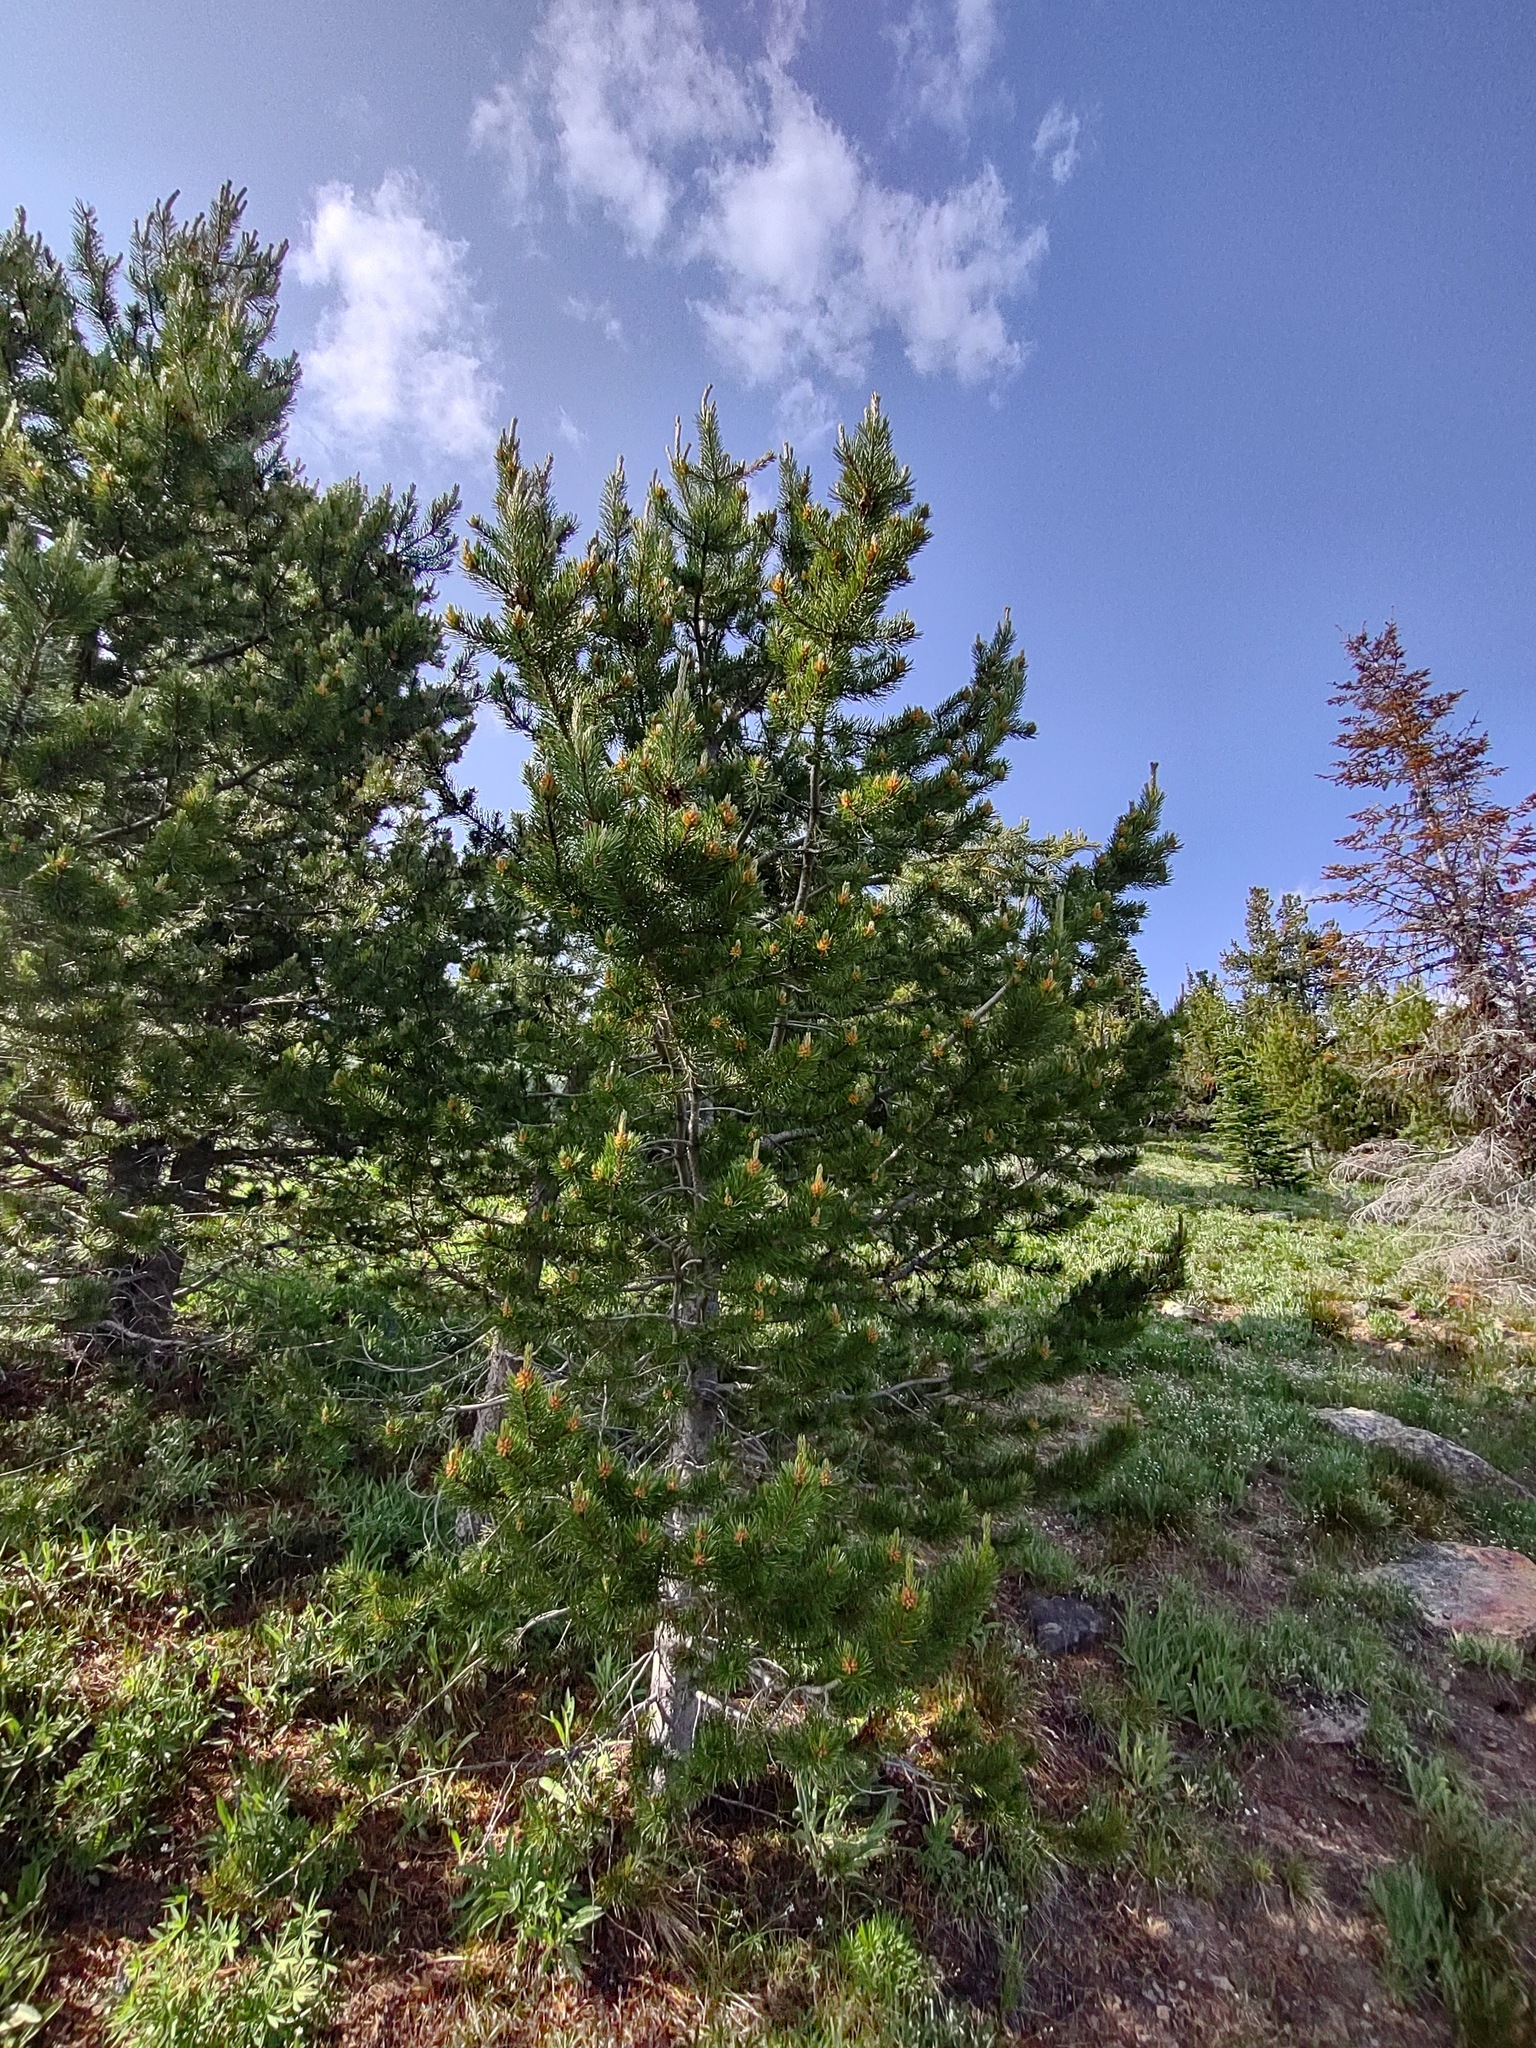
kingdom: Plantae
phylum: Tracheophyta
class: Pinopsida
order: Pinales
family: Pinaceae
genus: Pinus
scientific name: Pinus contorta
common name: Lodgepole pine
